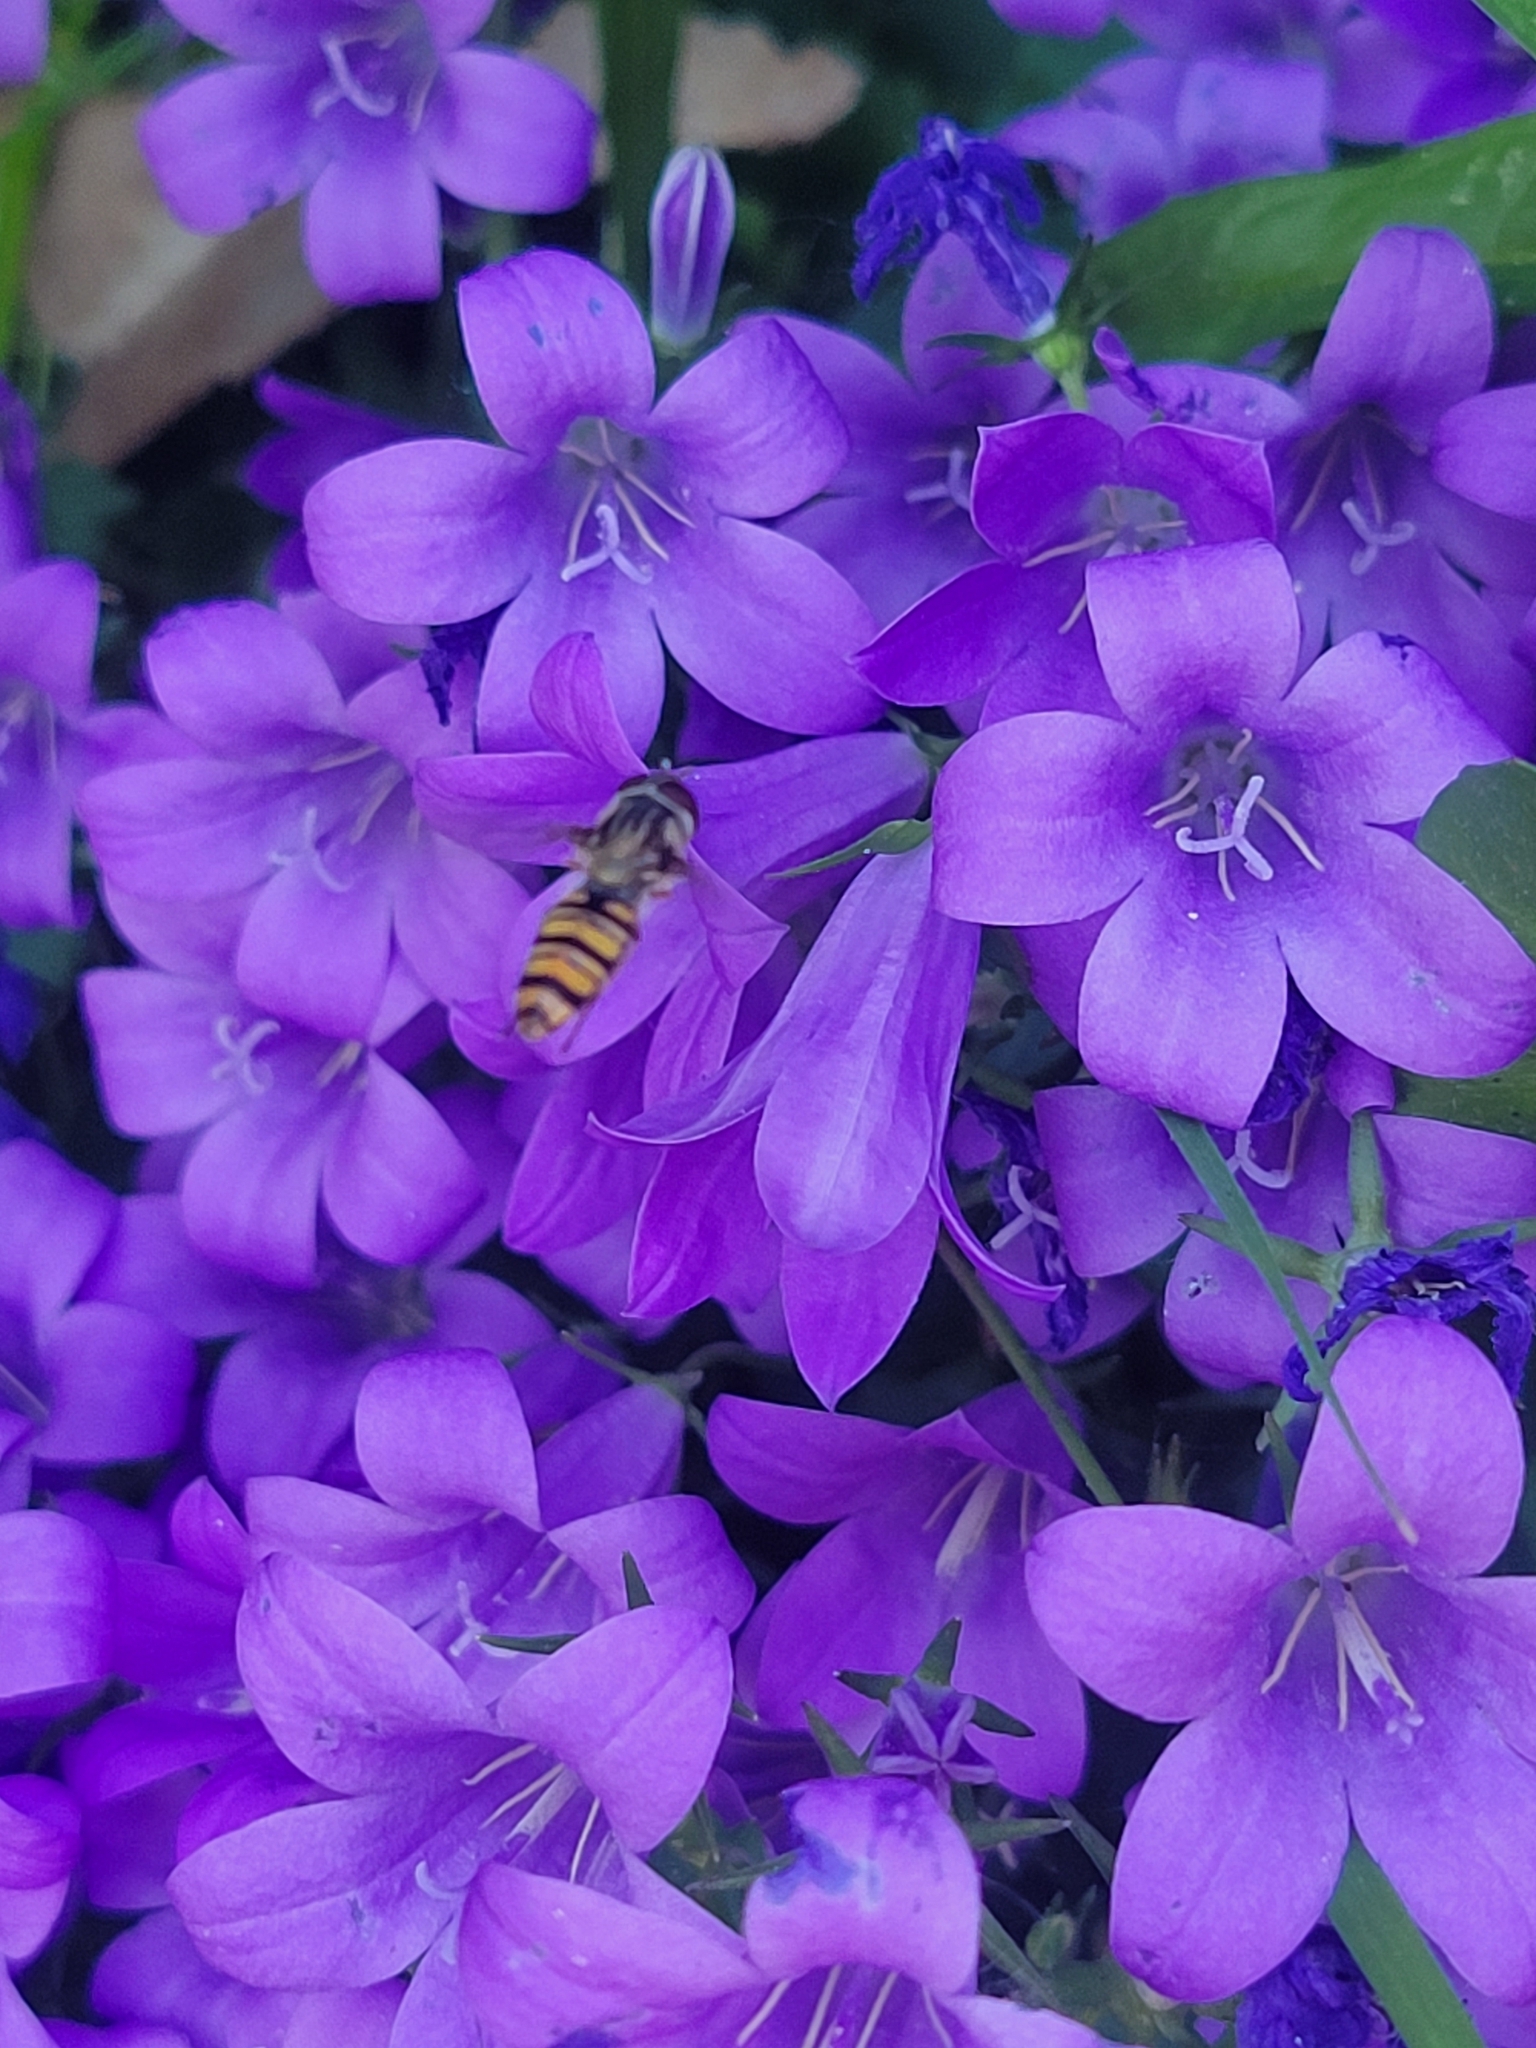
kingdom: Animalia
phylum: Arthropoda
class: Insecta
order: Diptera
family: Syrphidae
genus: Episyrphus
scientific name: Episyrphus balteatus
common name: Marmalade hoverfly
